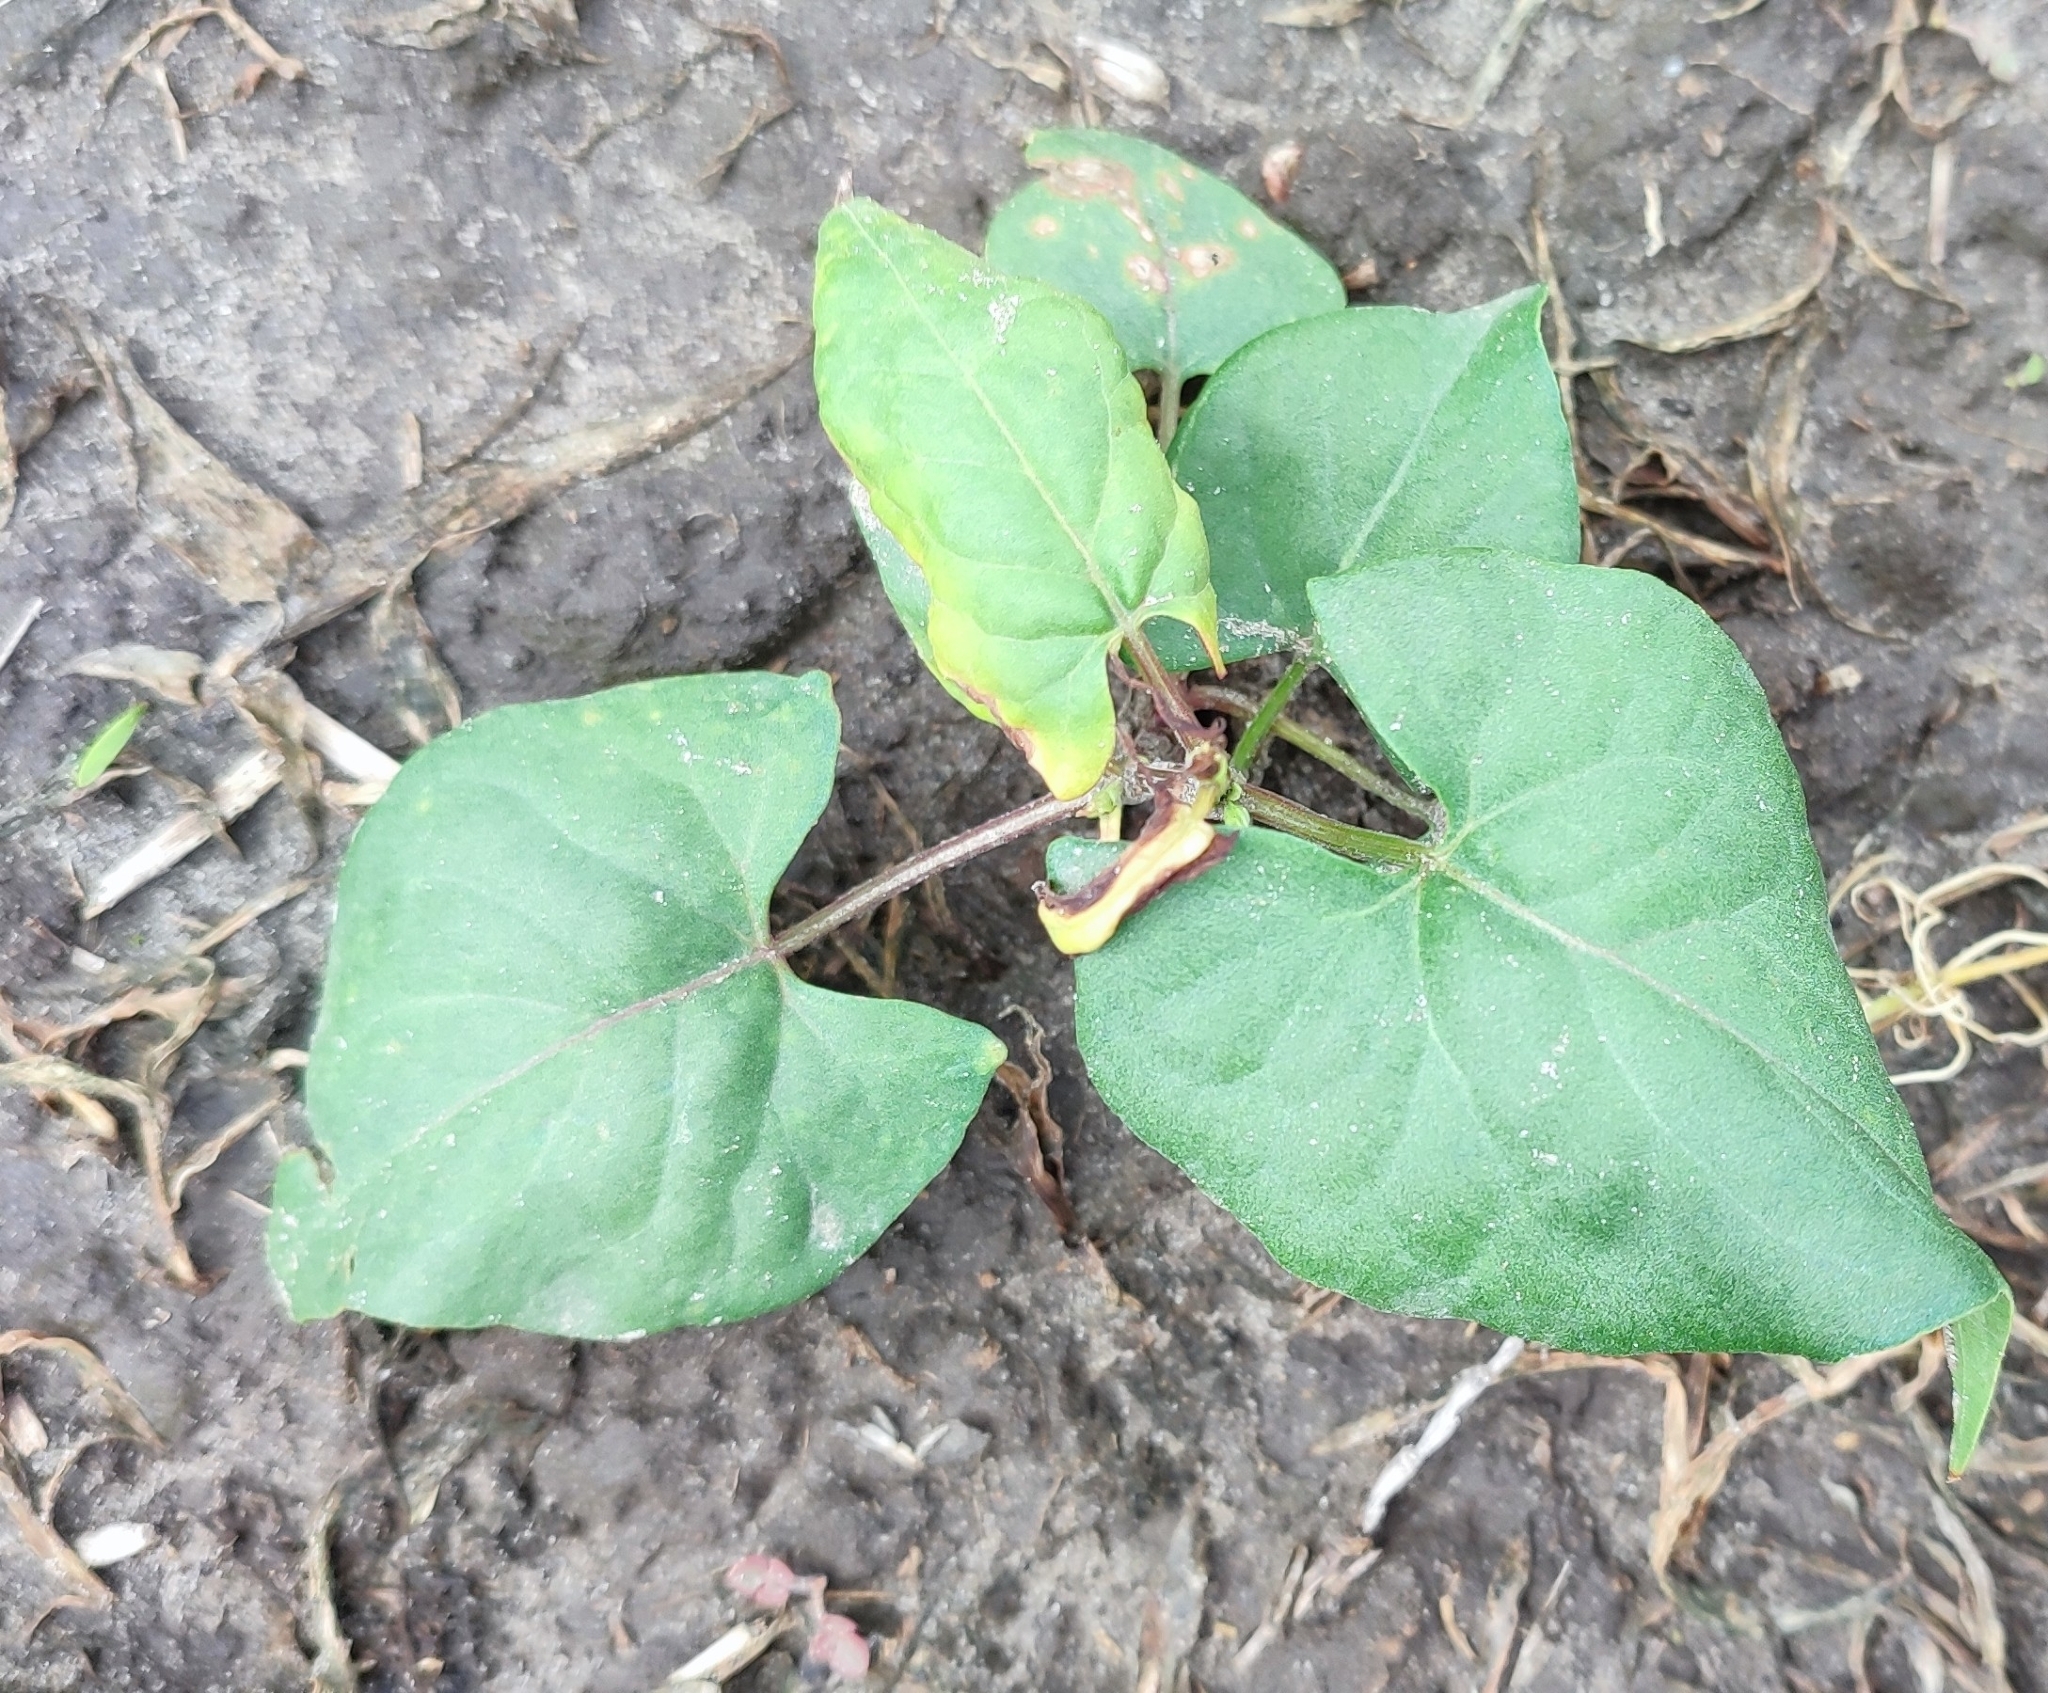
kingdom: Plantae
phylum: Tracheophyta
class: Magnoliopsida
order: Caryophyllales
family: Polygonaceae
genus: Fallopia
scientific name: Fallopia convolvulus
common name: Black bindweed
